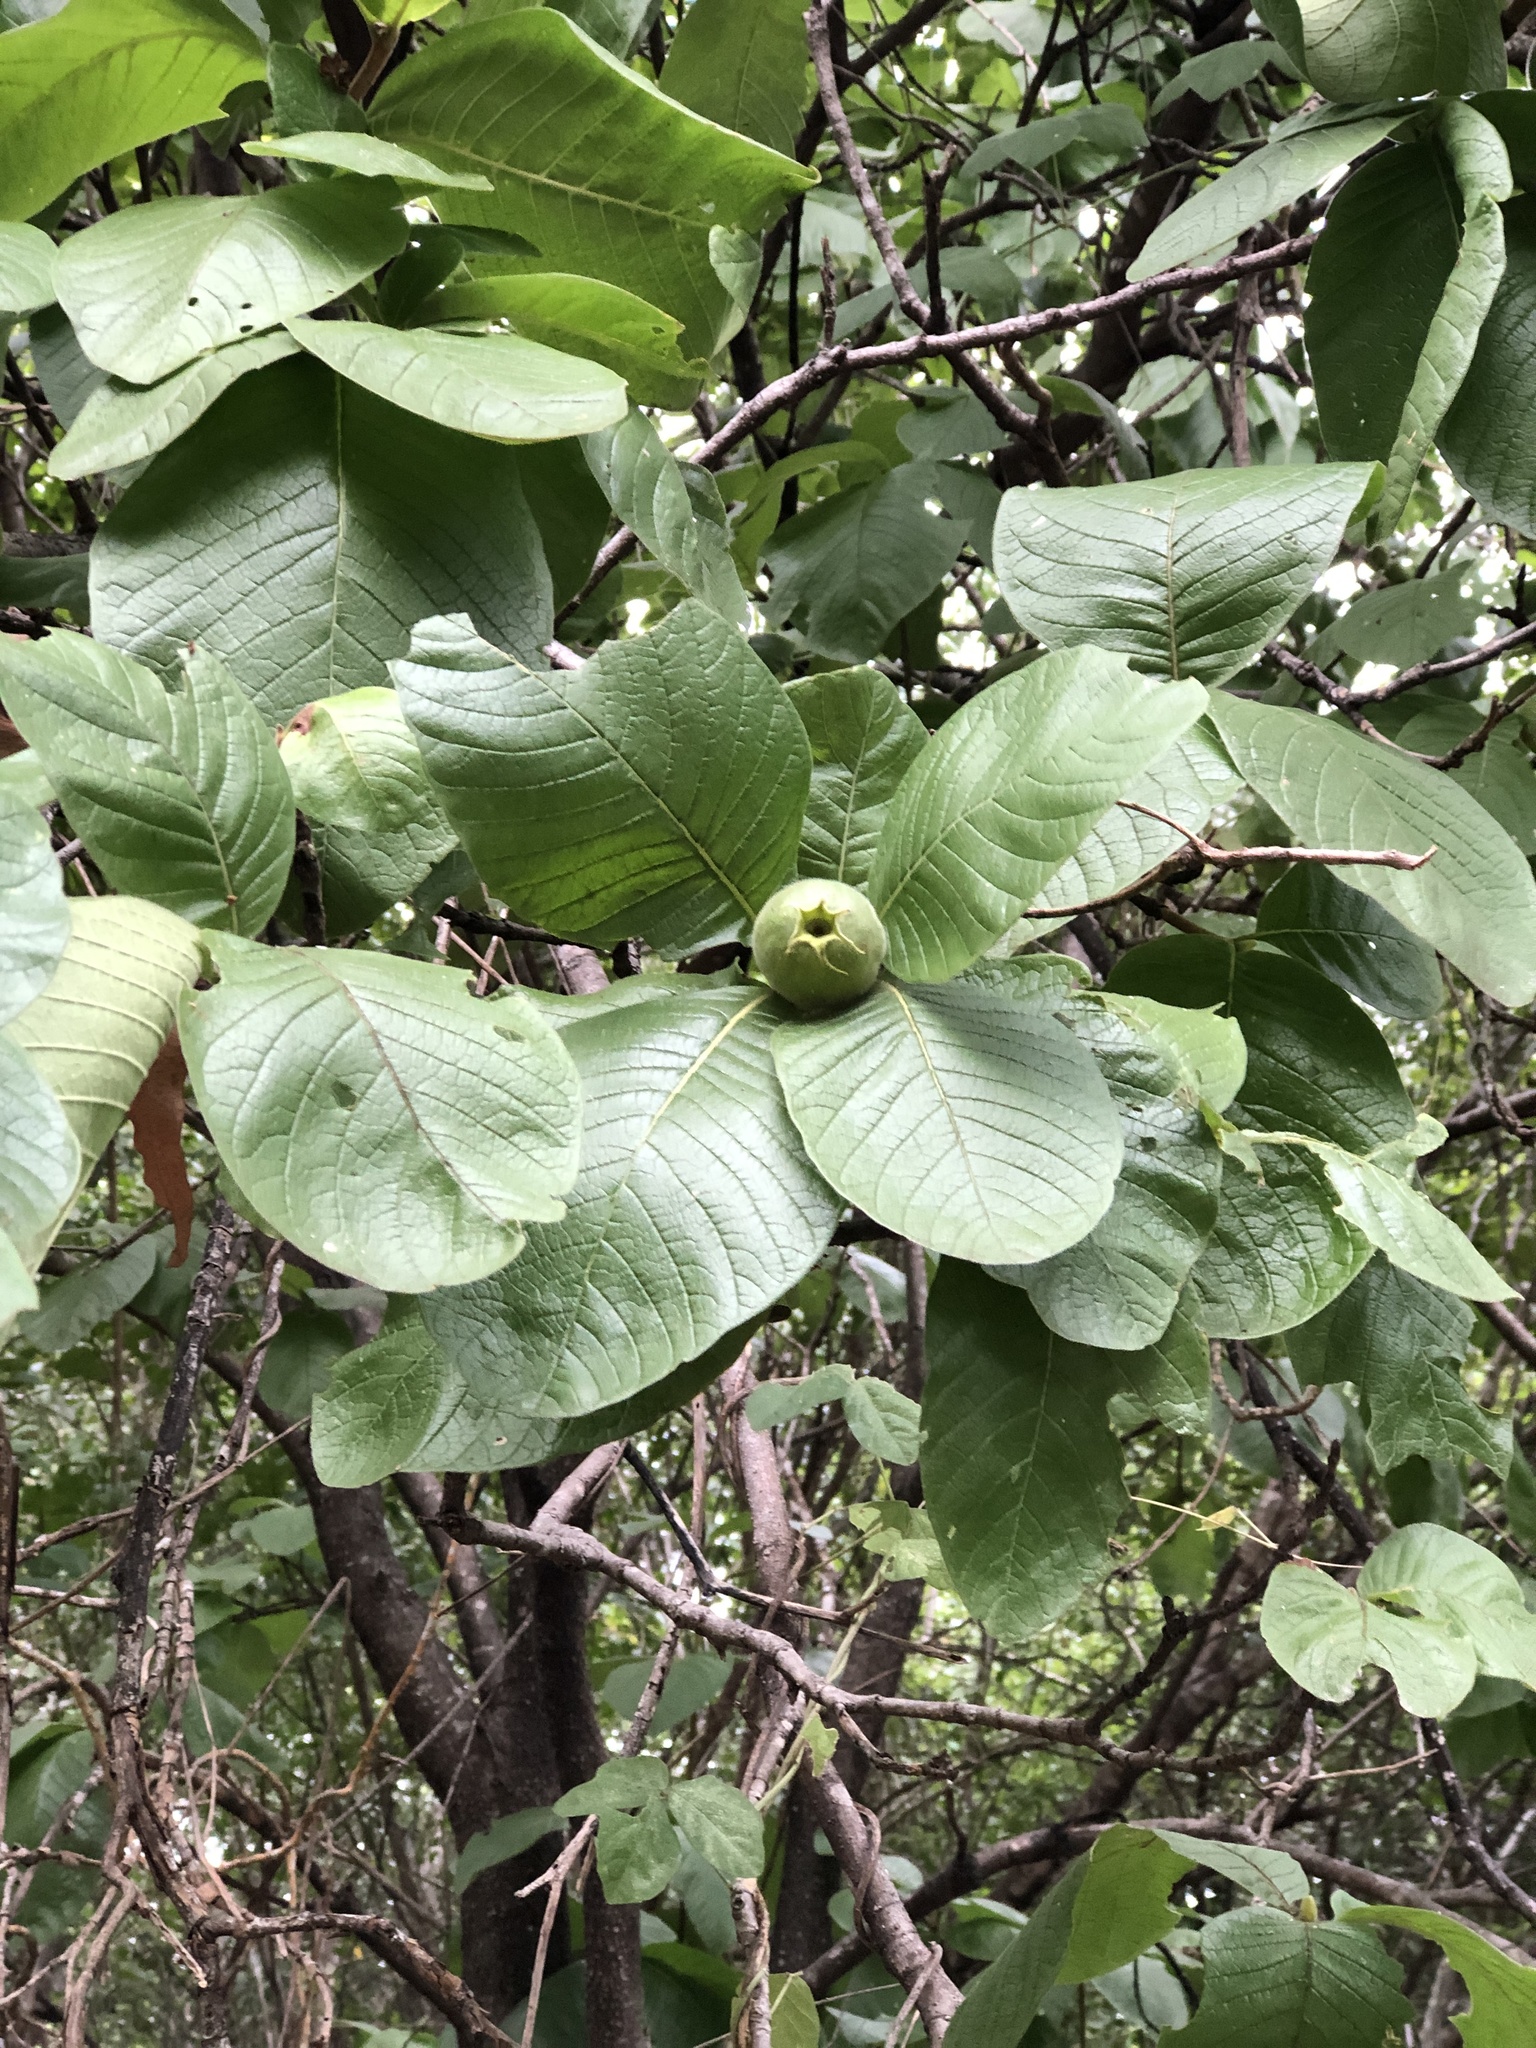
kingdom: Plantae
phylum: Tracheophyta
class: Magnoliopsida
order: Gentianales
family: Rubiaceae
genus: Larsenaikia
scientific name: Larsenaikia ochreata
